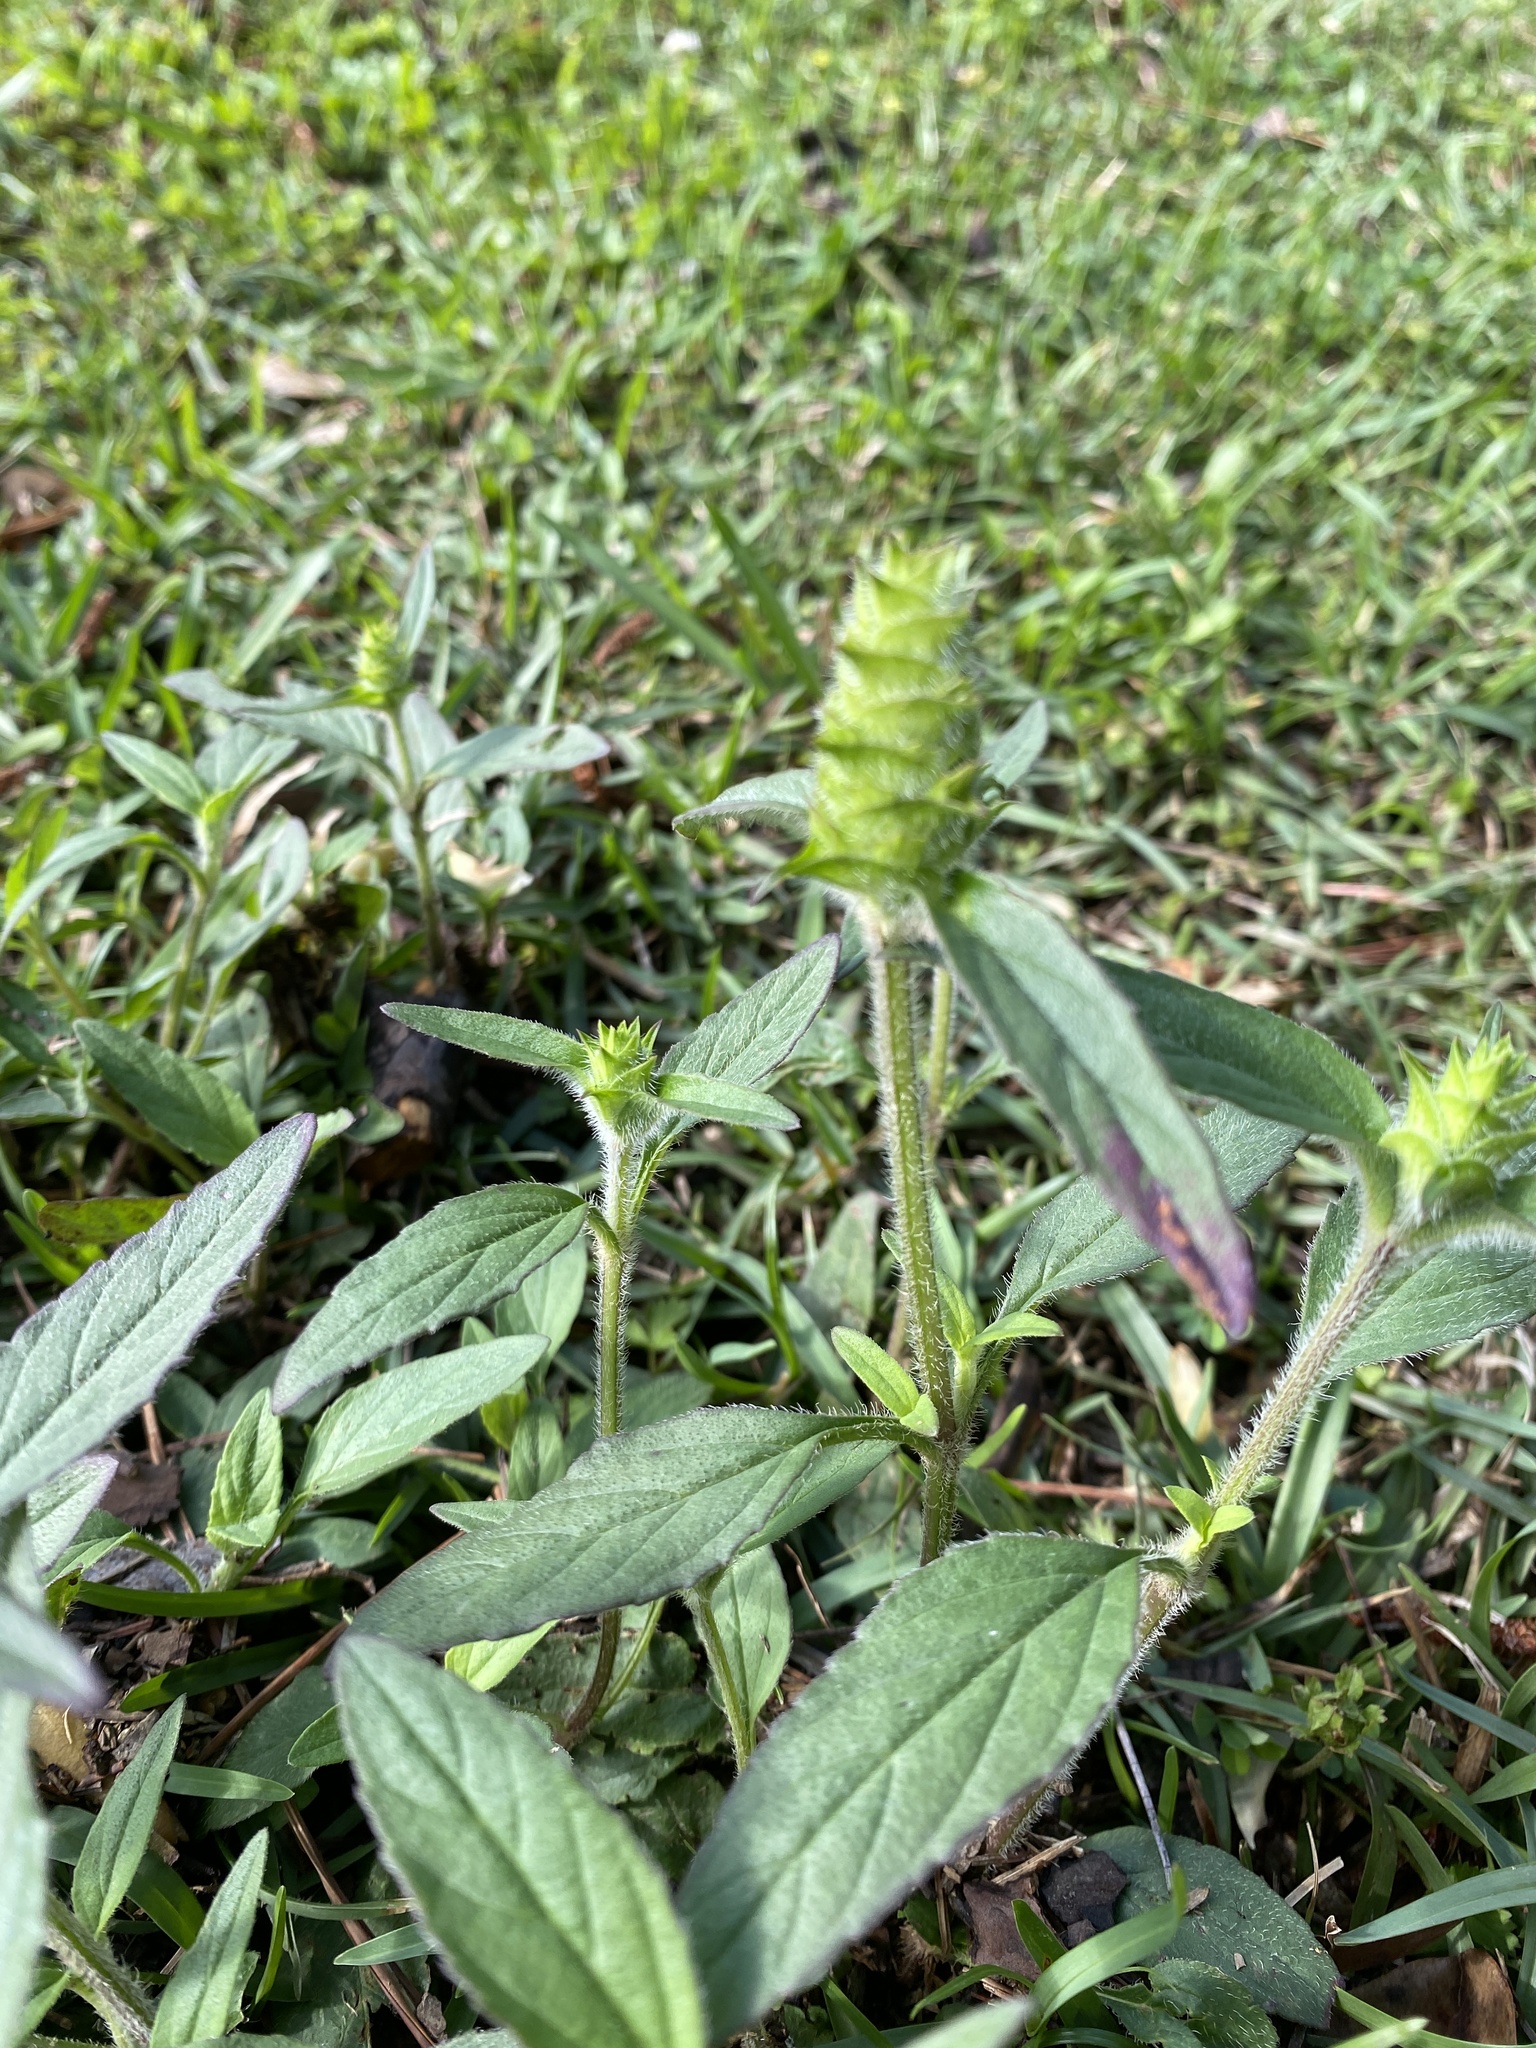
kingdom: Plantae
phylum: Tracheophyta
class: Magnoliopsida
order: Lamiales
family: Lamiaceae
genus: Prunella
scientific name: Prunella vulgaris
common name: Heal-all
